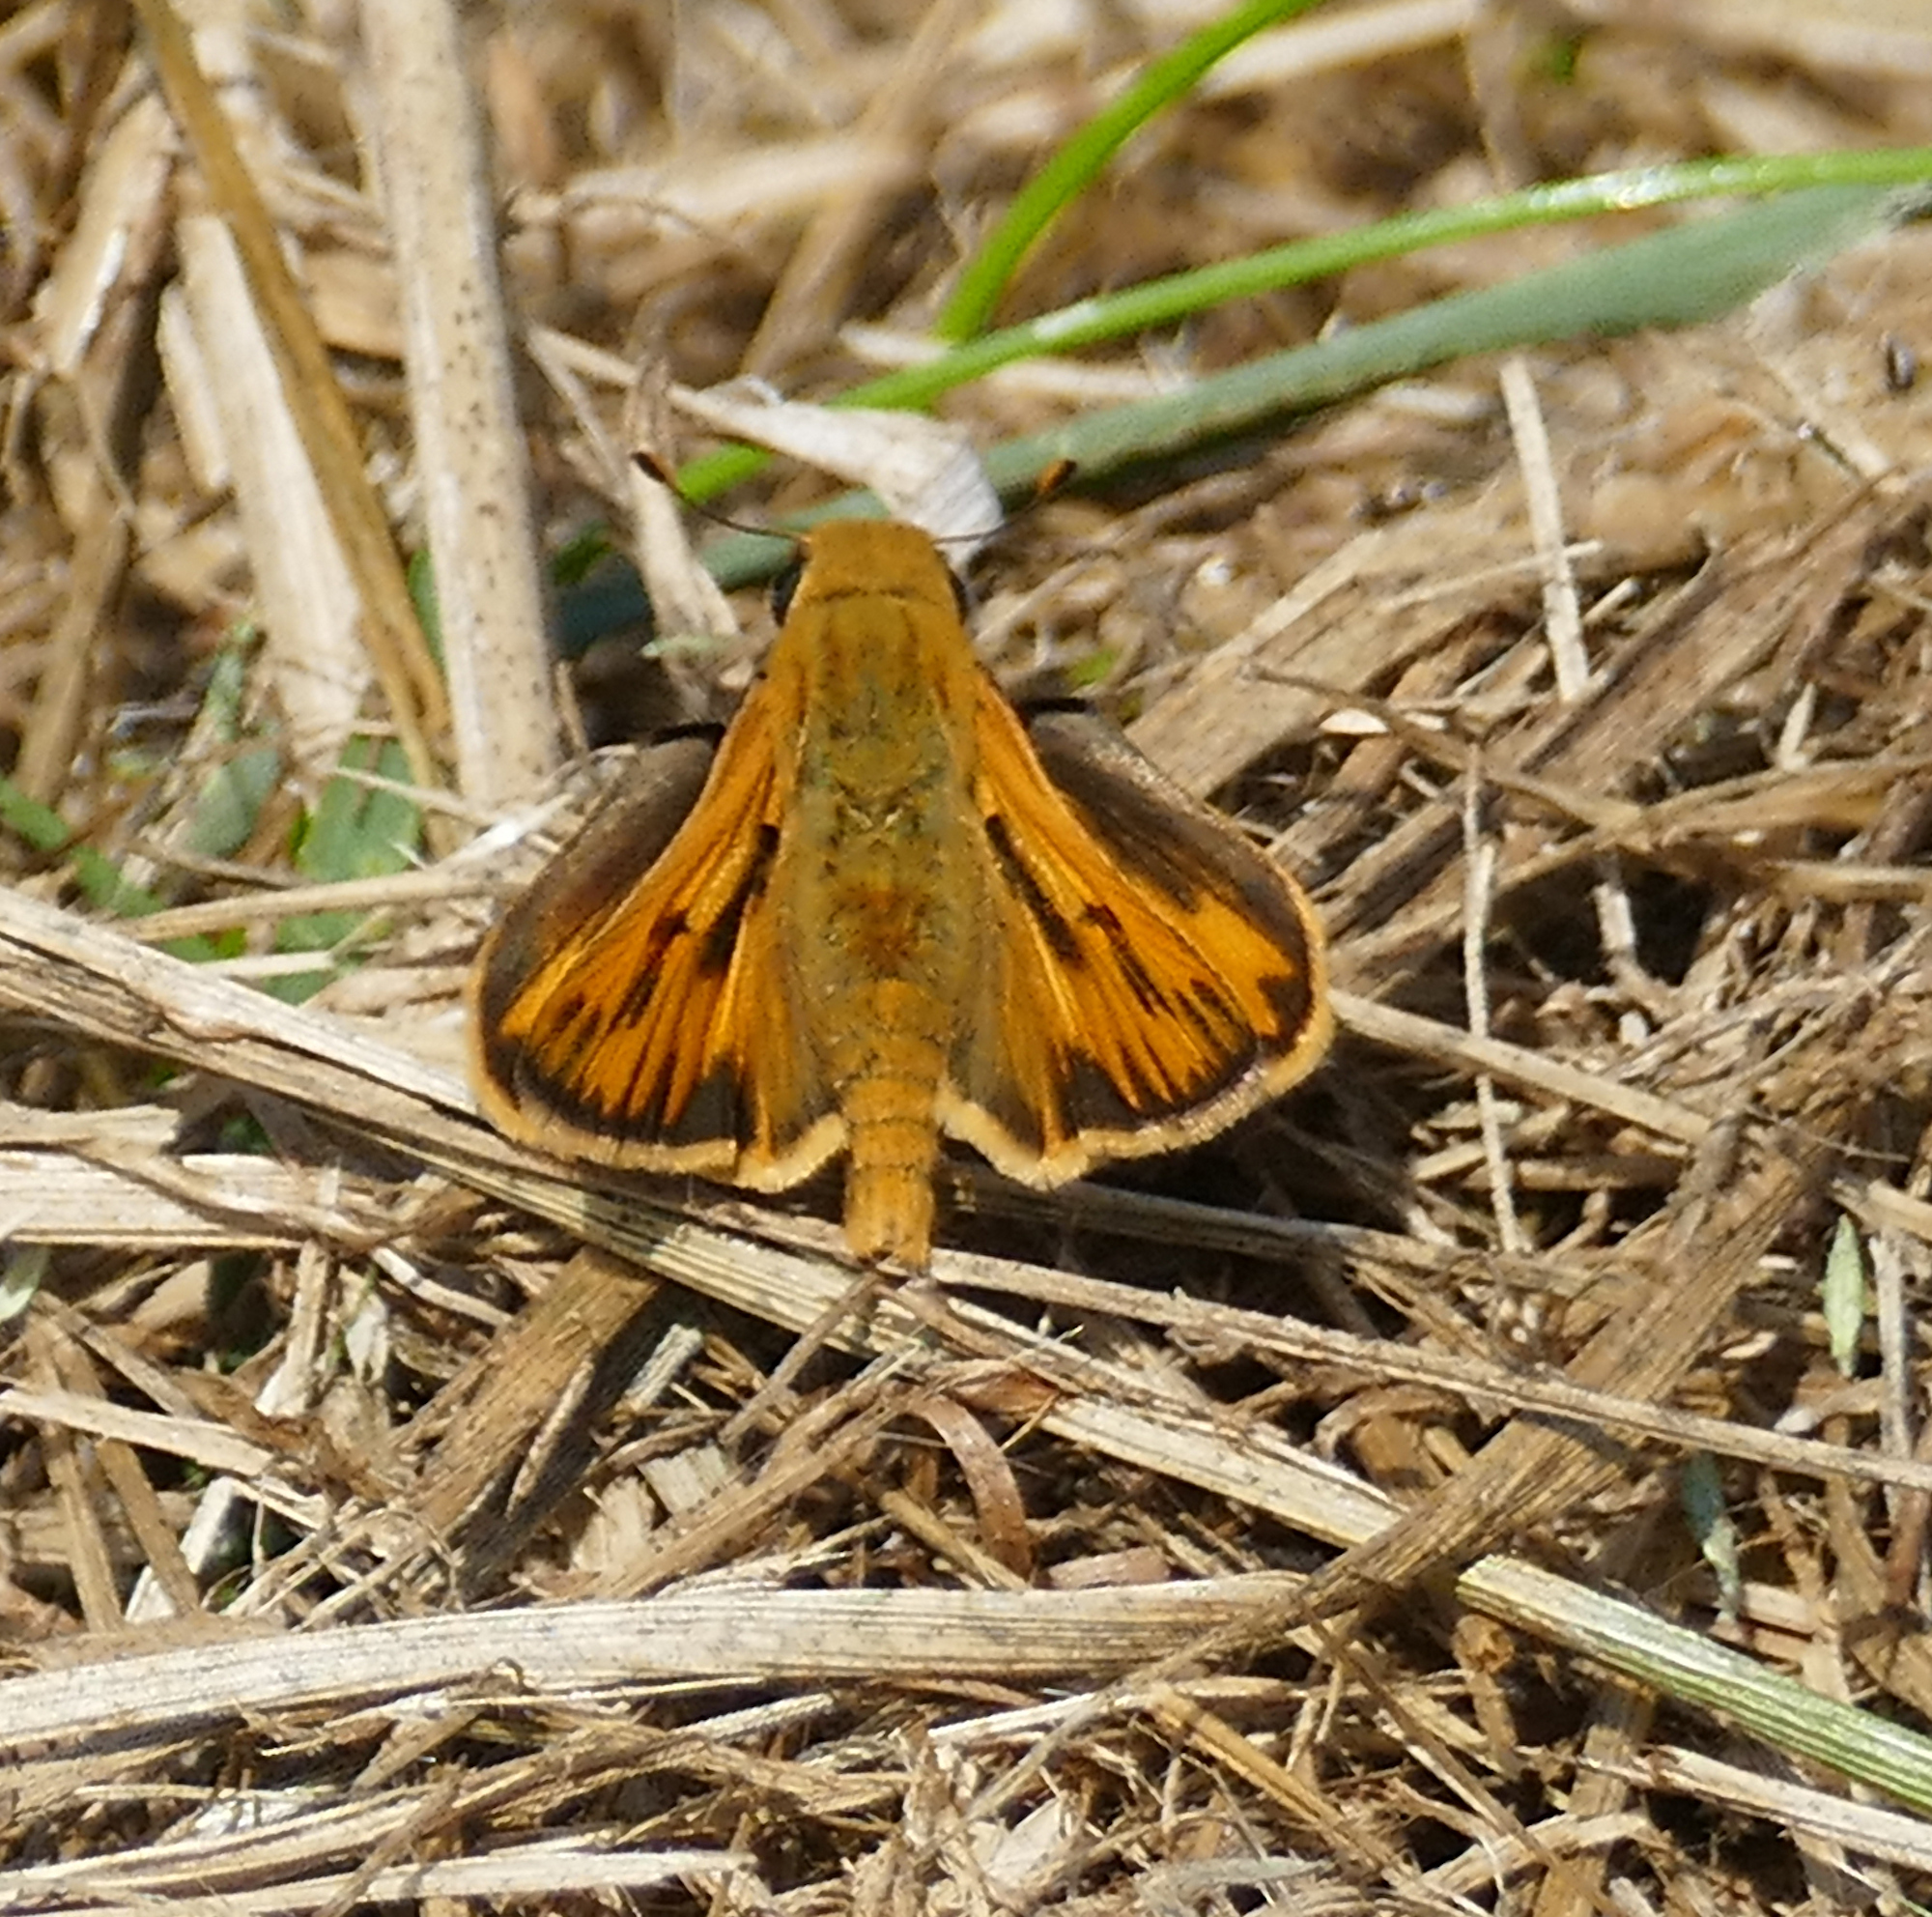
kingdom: Animalia
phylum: Arthropoda
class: Insecta
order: Lepidoptera
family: Hesperiidae
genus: Hylephila
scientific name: Hylephila phyleus
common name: Fiery skipper
